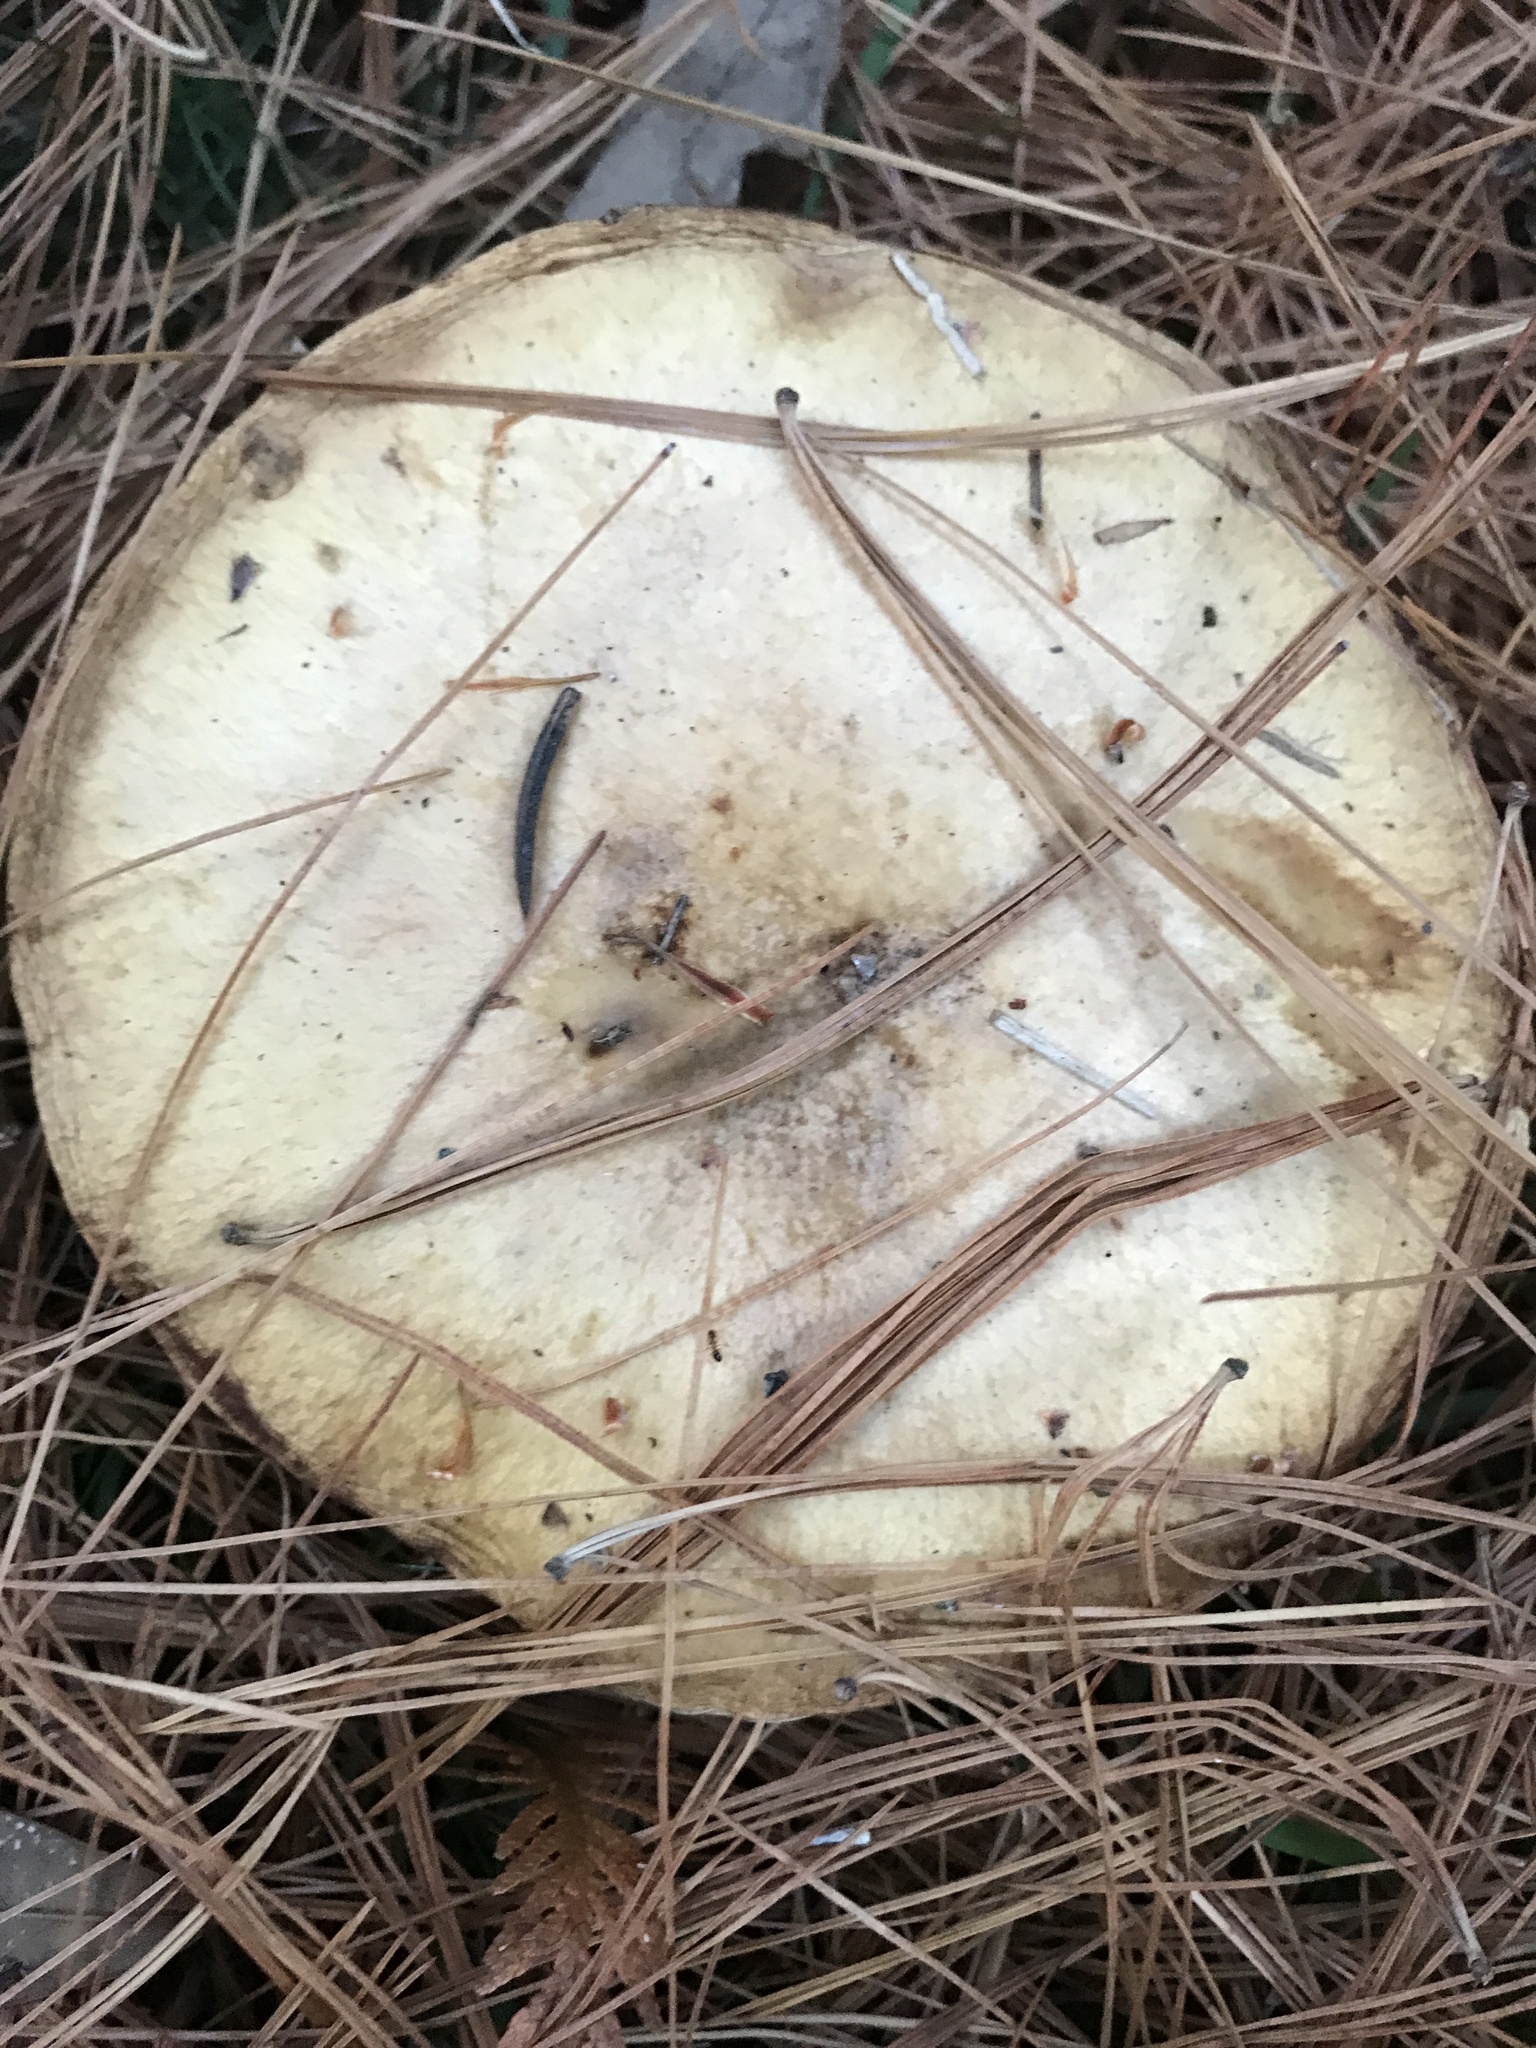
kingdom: Fungi
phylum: Basidiomycota
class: Agaricomycetes
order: Boletales
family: Suillaceae
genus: Fuscoboletinus
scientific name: Fuscoboletinus weaverae
